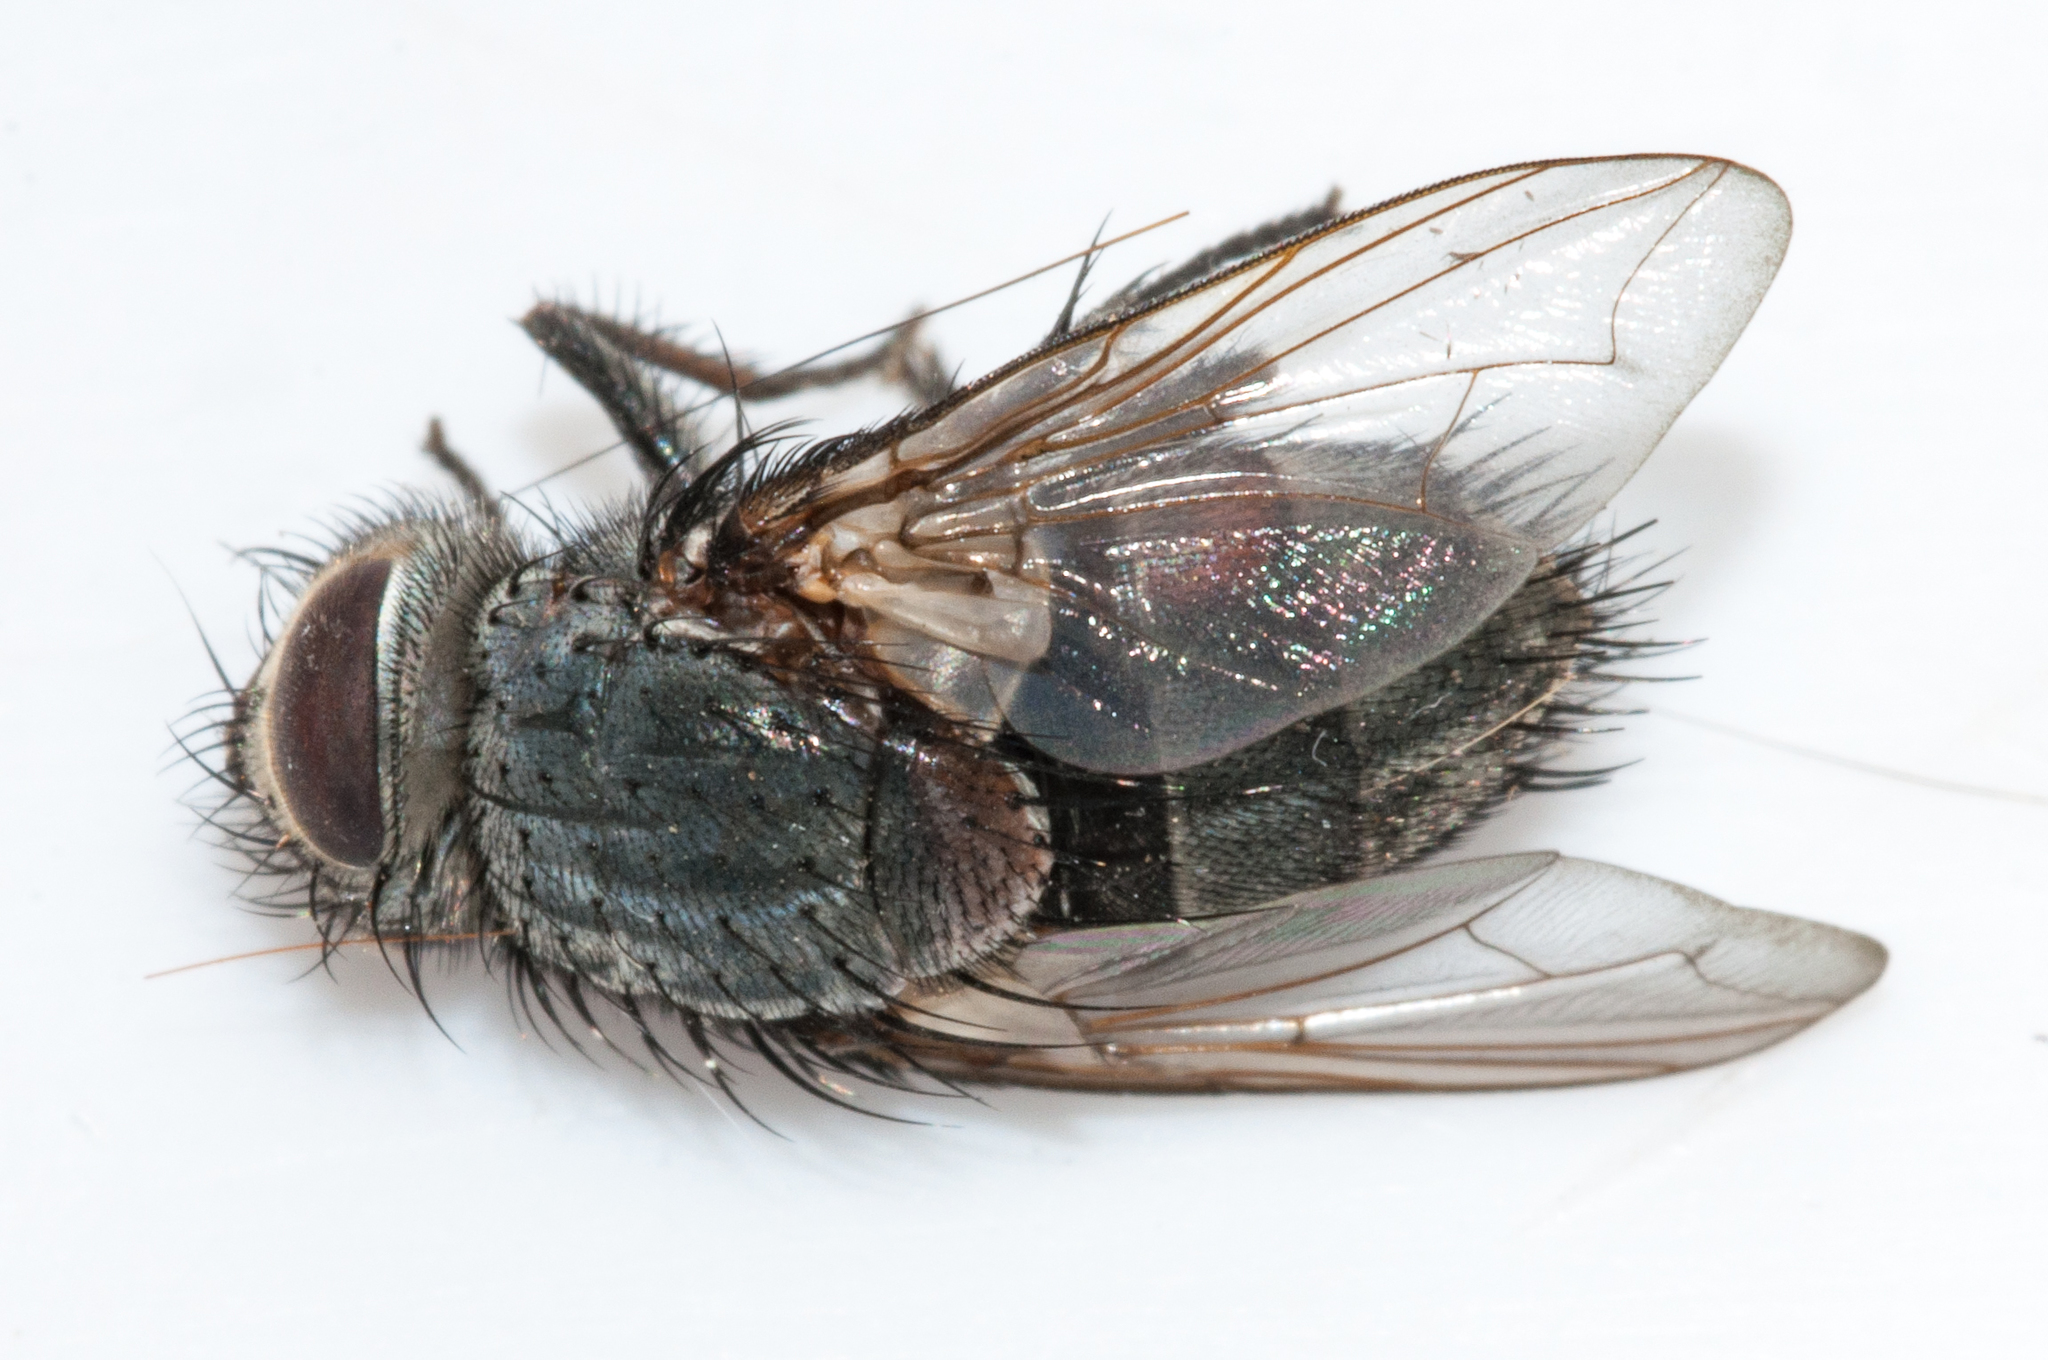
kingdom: Animalia
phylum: Arthropoda
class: Insecta
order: Lepidoptera
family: Lasiocampidae
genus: Mesocelis
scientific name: Mesocelis monticola
